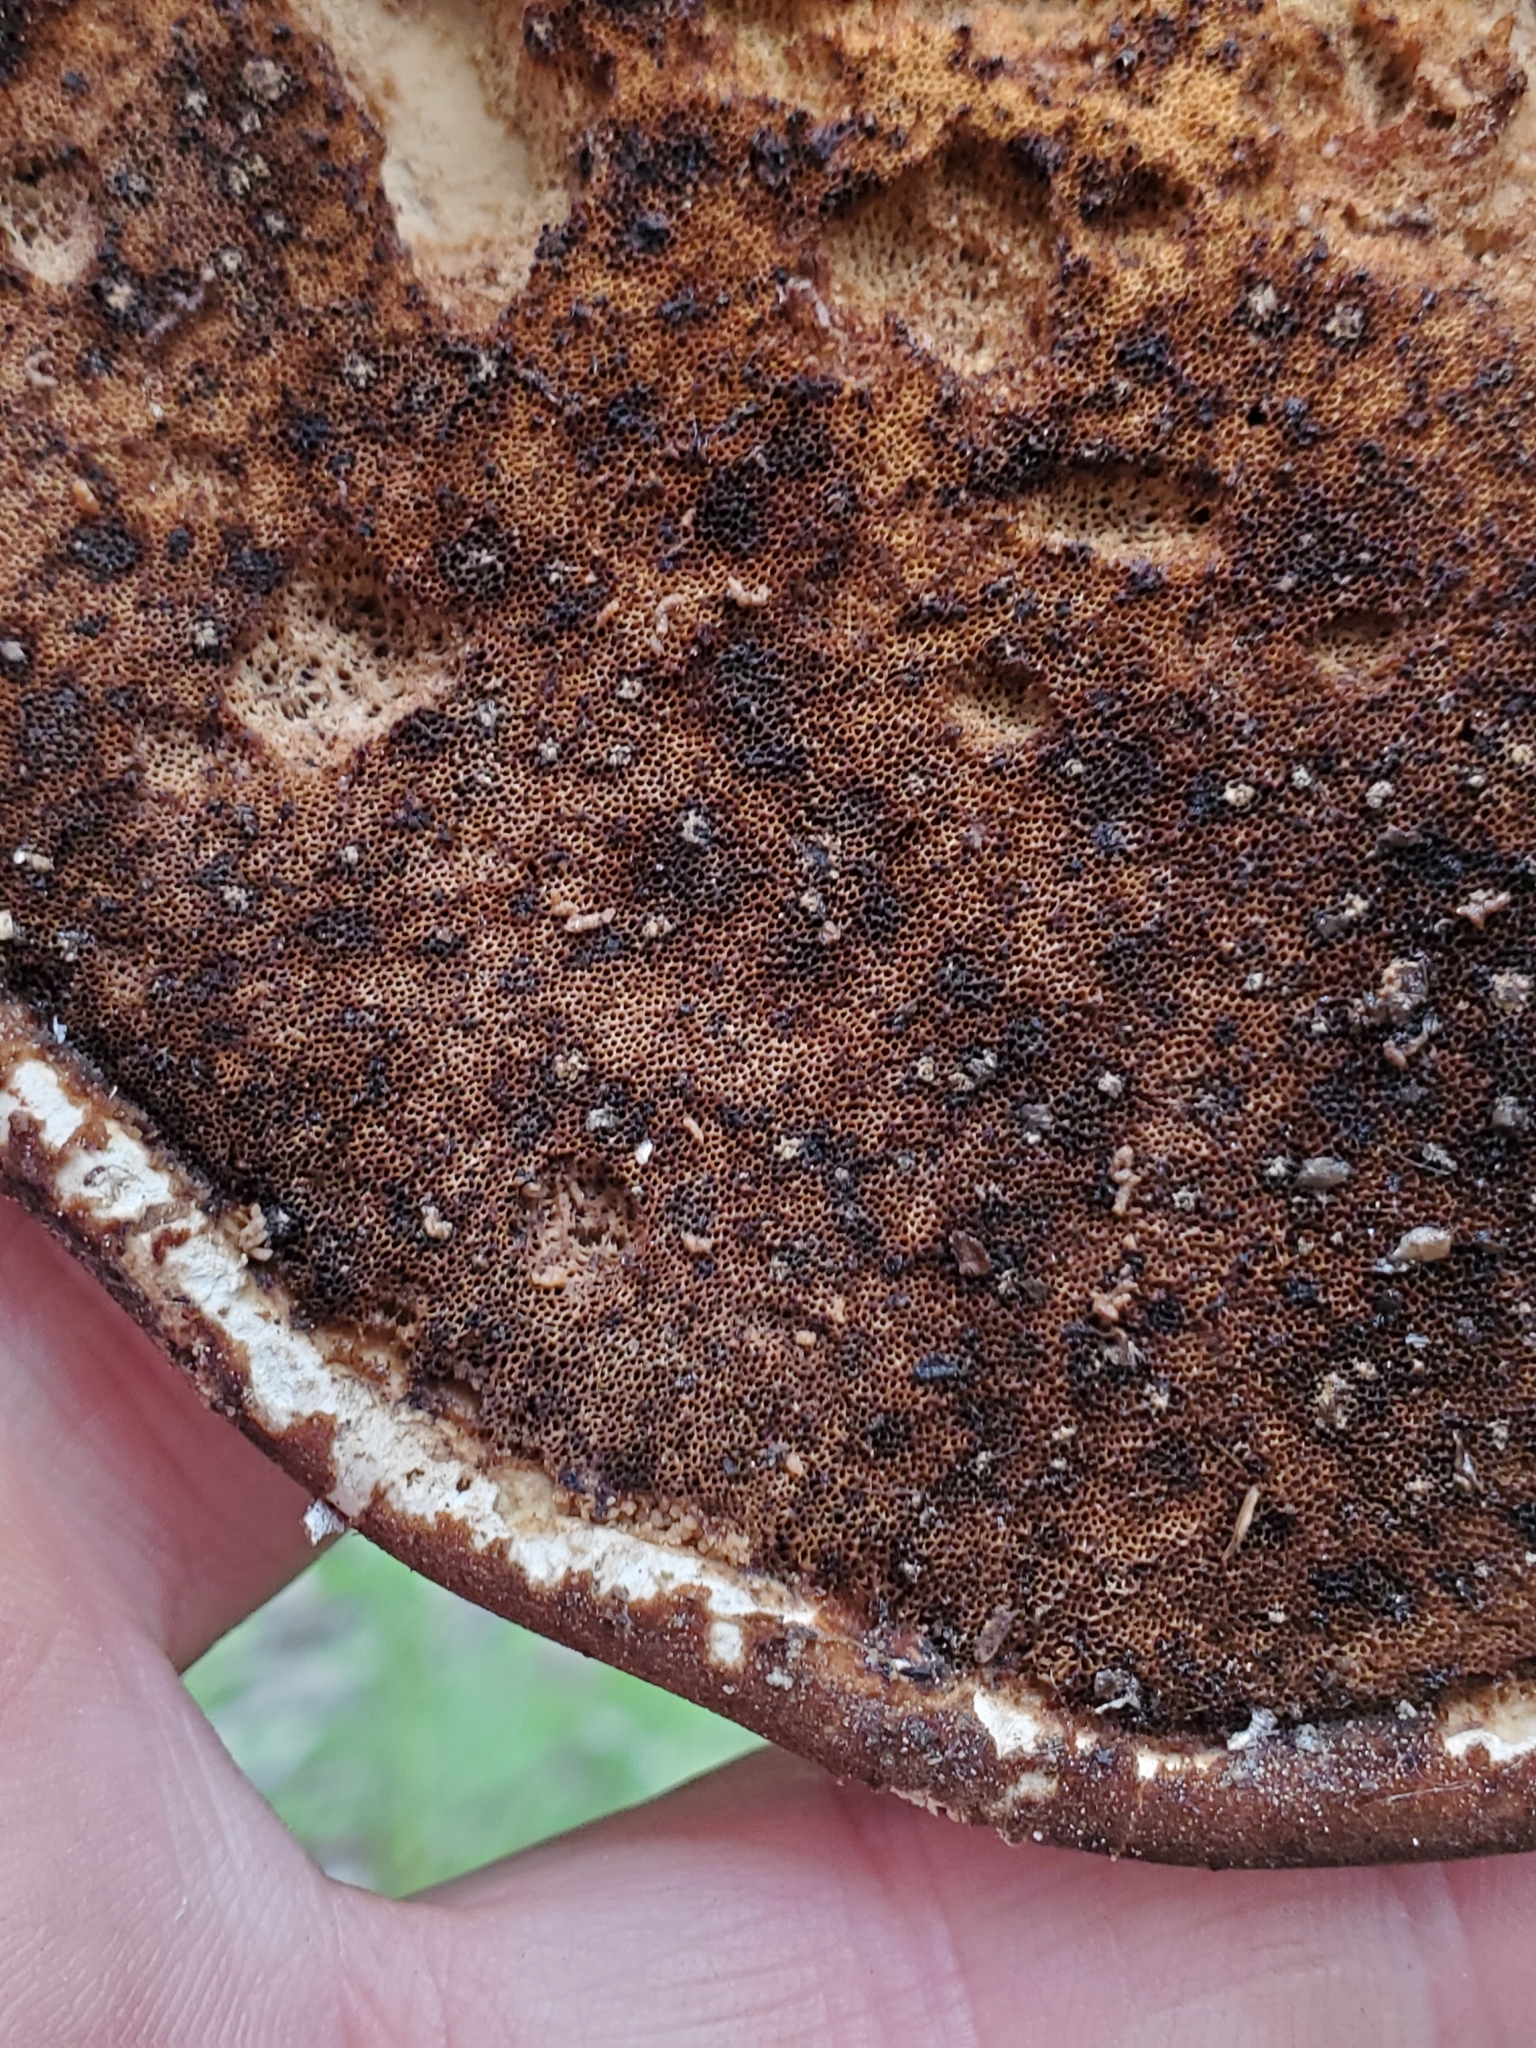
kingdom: Fungi
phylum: Basidiomycota
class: Agaricomycetes
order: Polyporales
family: Fomitopsidaceae
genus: Fomitopsis
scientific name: Fomitopsis betulina
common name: Birch polypore
